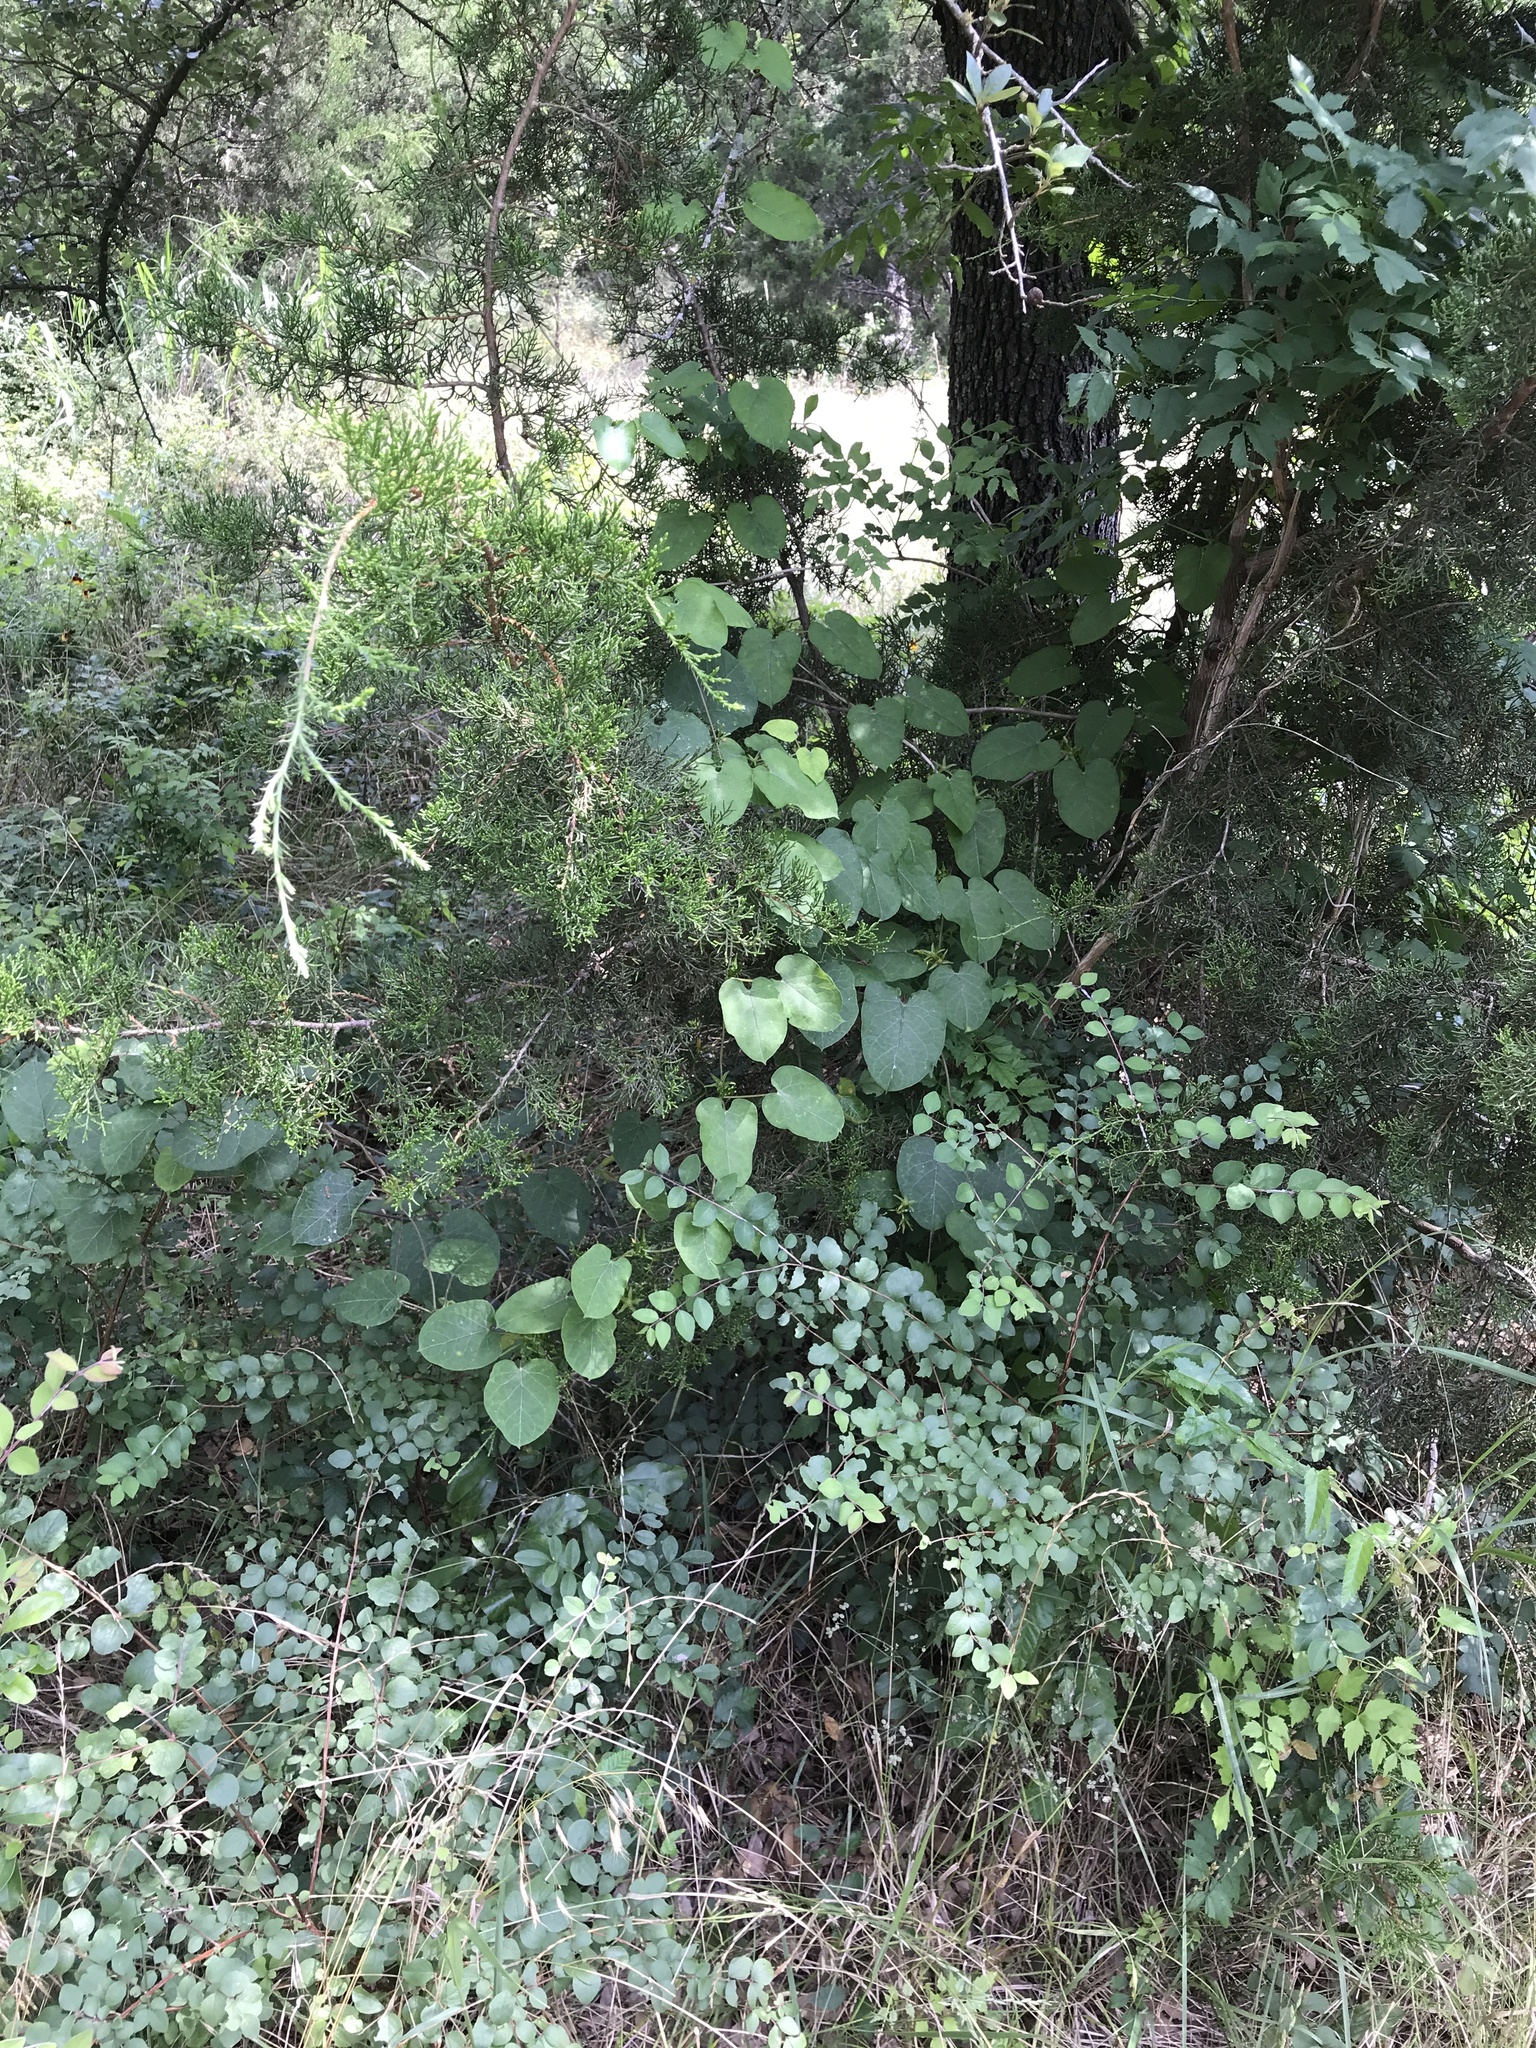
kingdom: Plantae
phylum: Tracheophyta
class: Magnoliopsida
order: Gentianales
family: Apocynaceae
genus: Gonolobus
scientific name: Gonolobus suberosus
